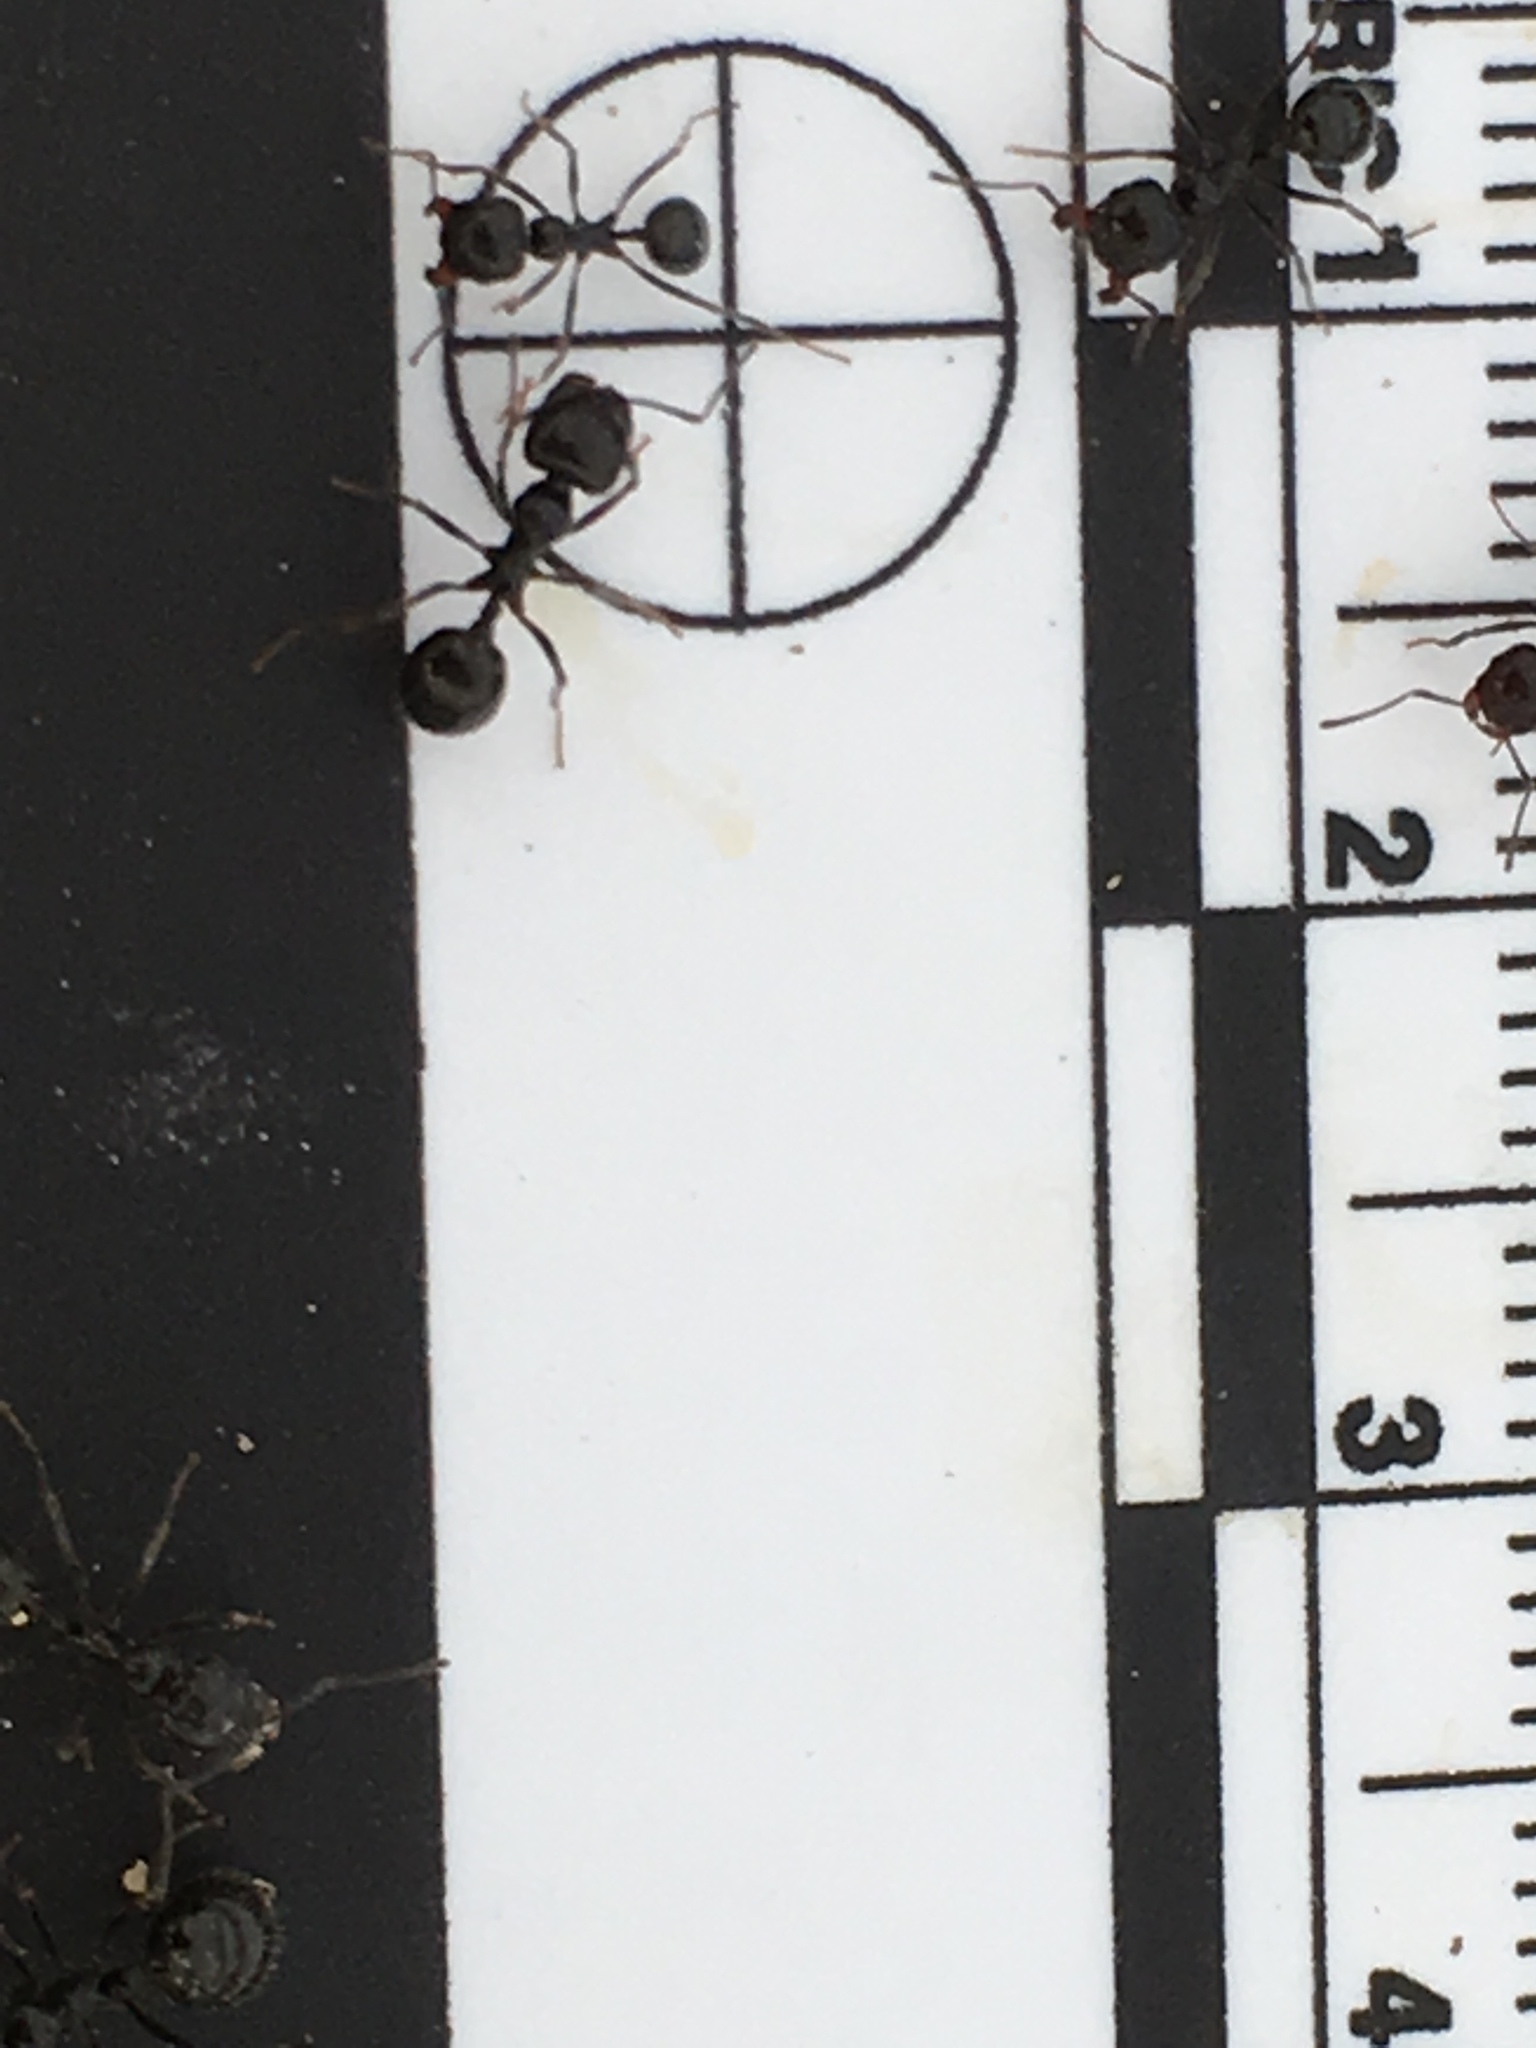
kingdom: Animalia
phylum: Arthropoda
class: Insecta
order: Hymenoptera
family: Formicidae
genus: Messor
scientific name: Messor pergandei
